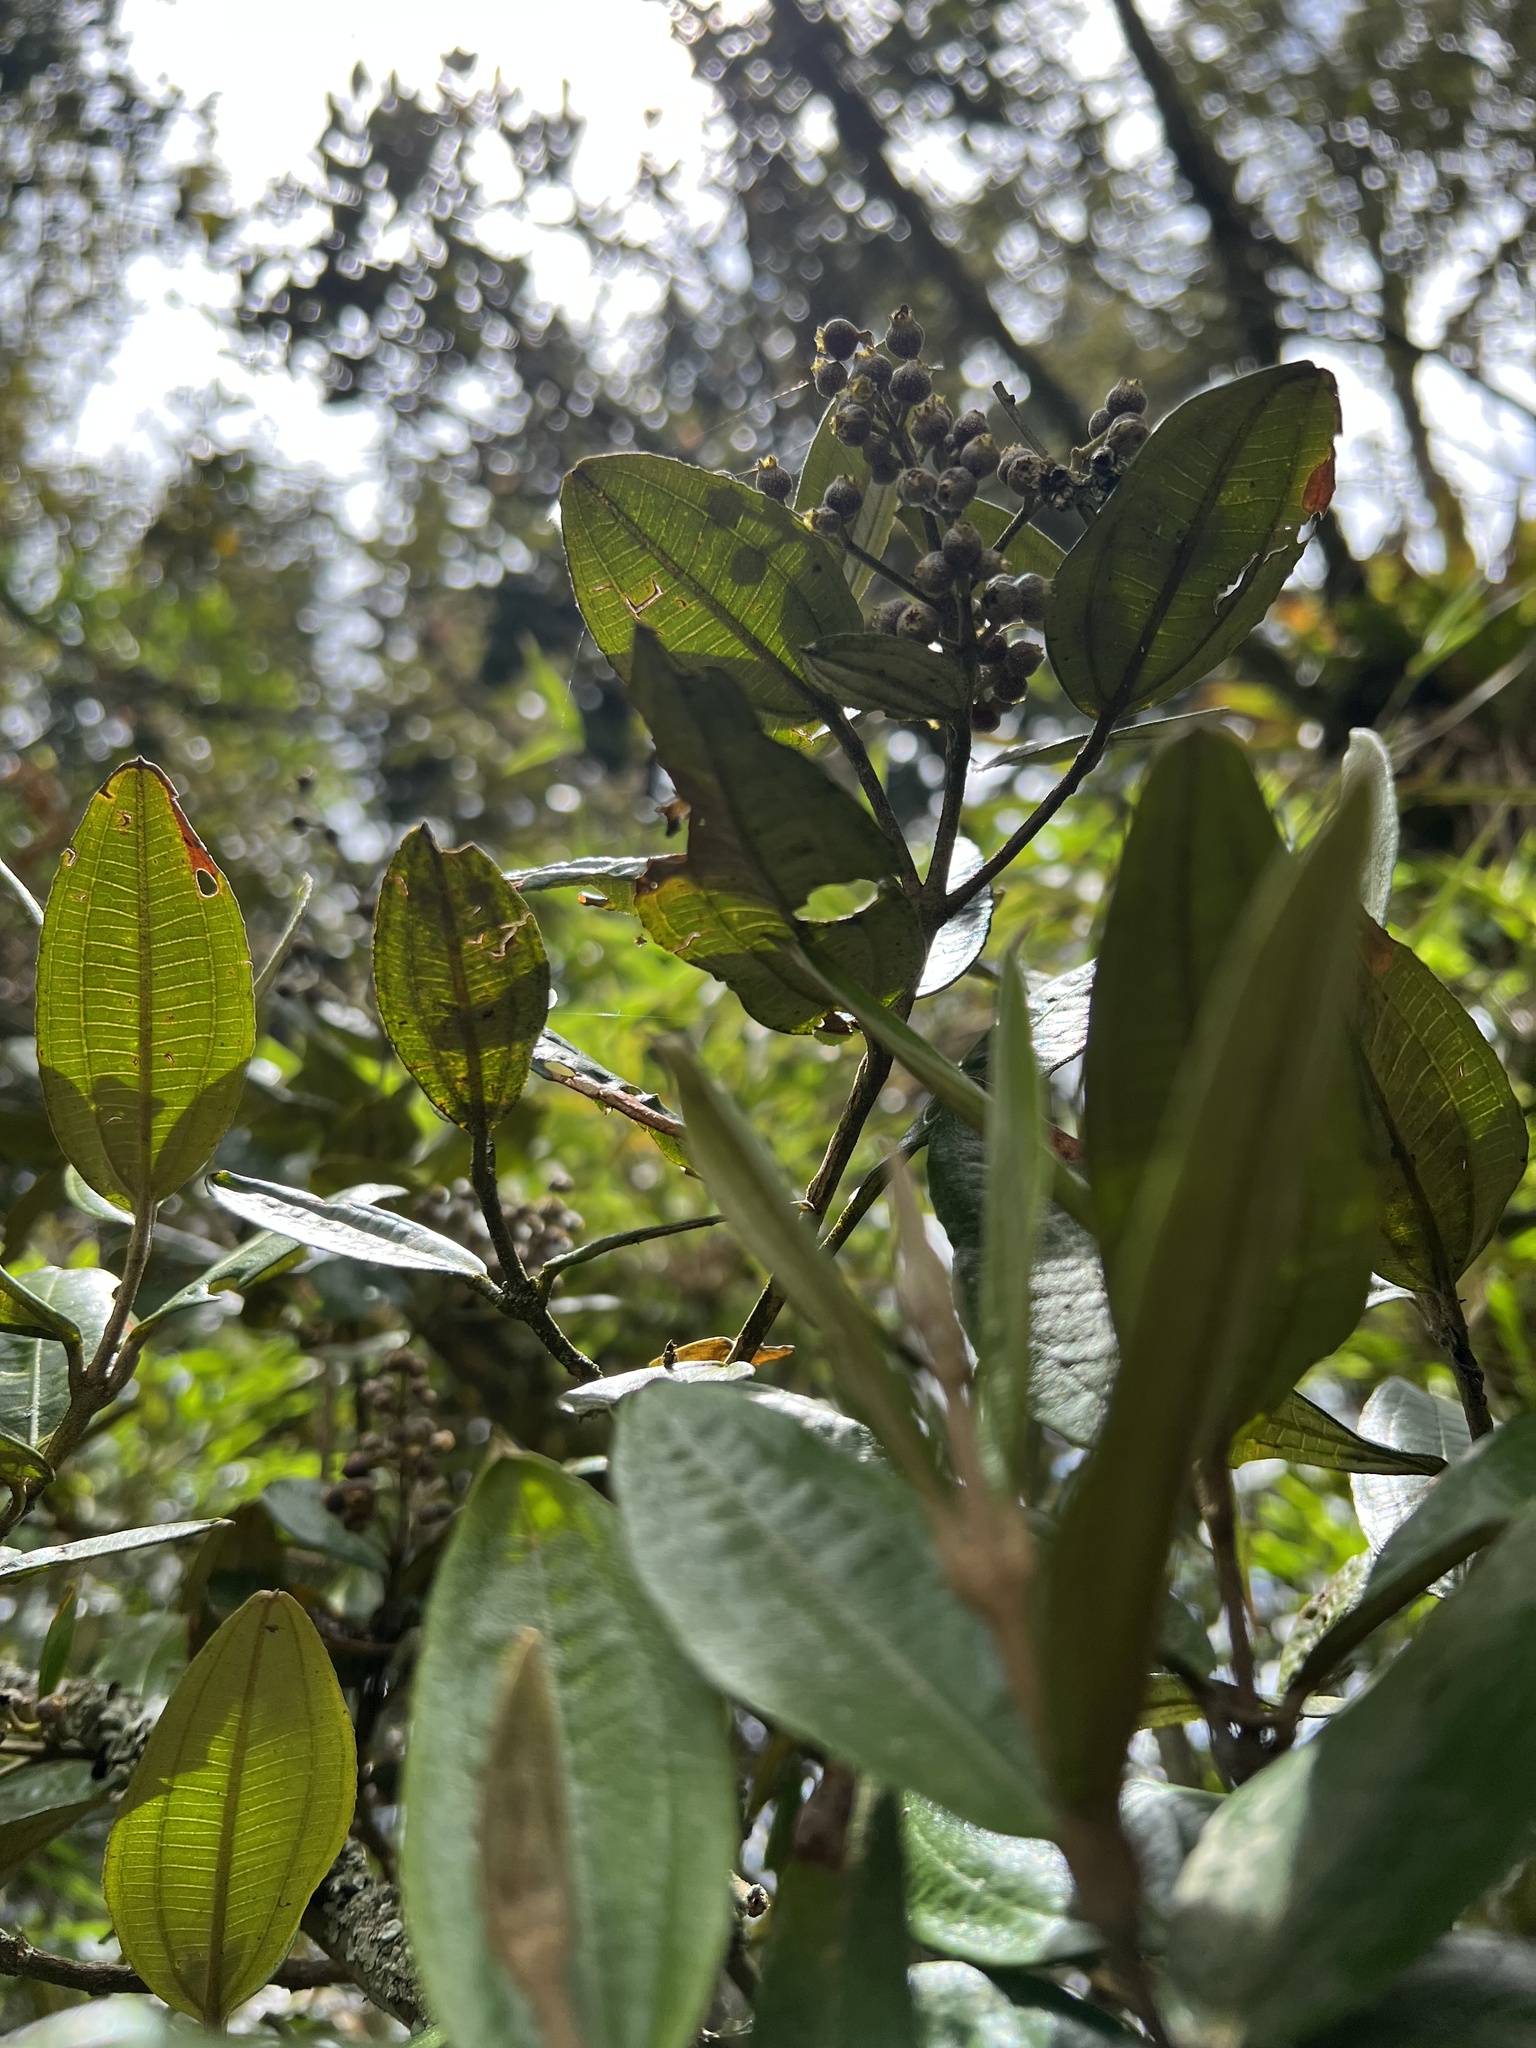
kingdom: Plantae
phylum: Tracheophyta
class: Magnoliopsida
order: Myrtales
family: Melastomataceae
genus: Miconia
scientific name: Miconia squamulosa
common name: Squamulose maya
